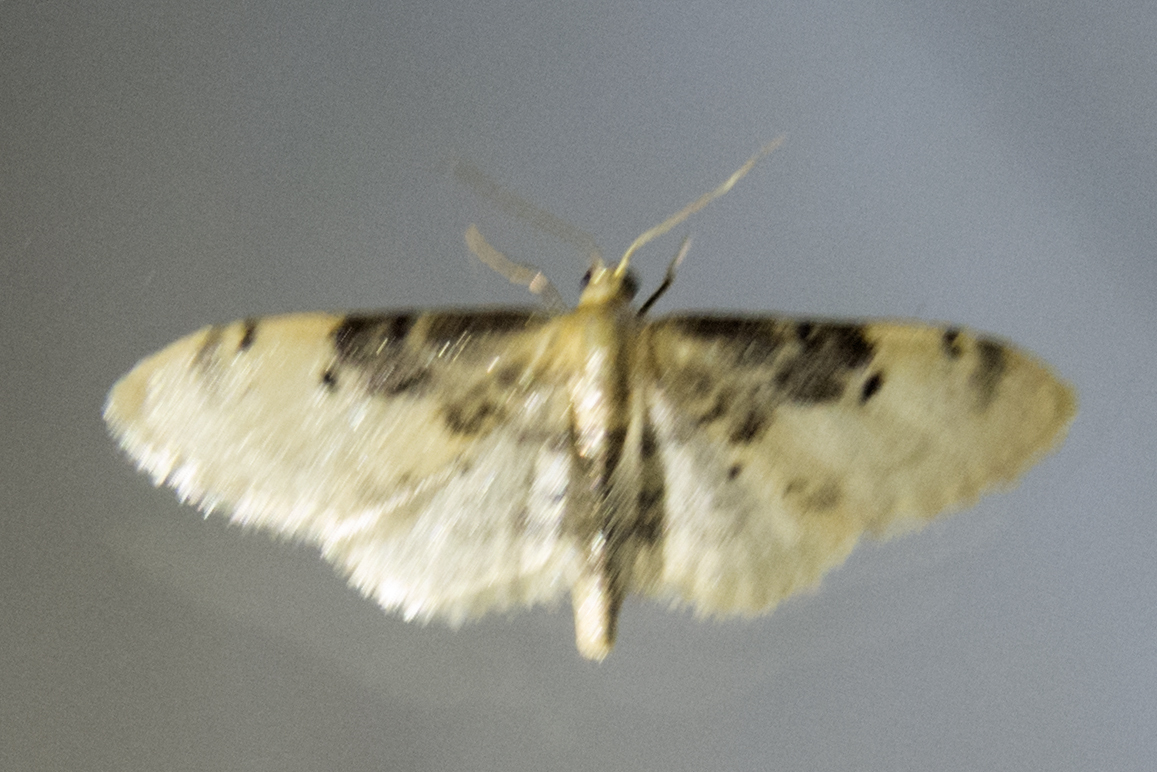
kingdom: Animalia
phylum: Arthropoda
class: Insecta
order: Lepidoptera
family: Geometridae
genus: Idaea
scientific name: Idaea filicata
